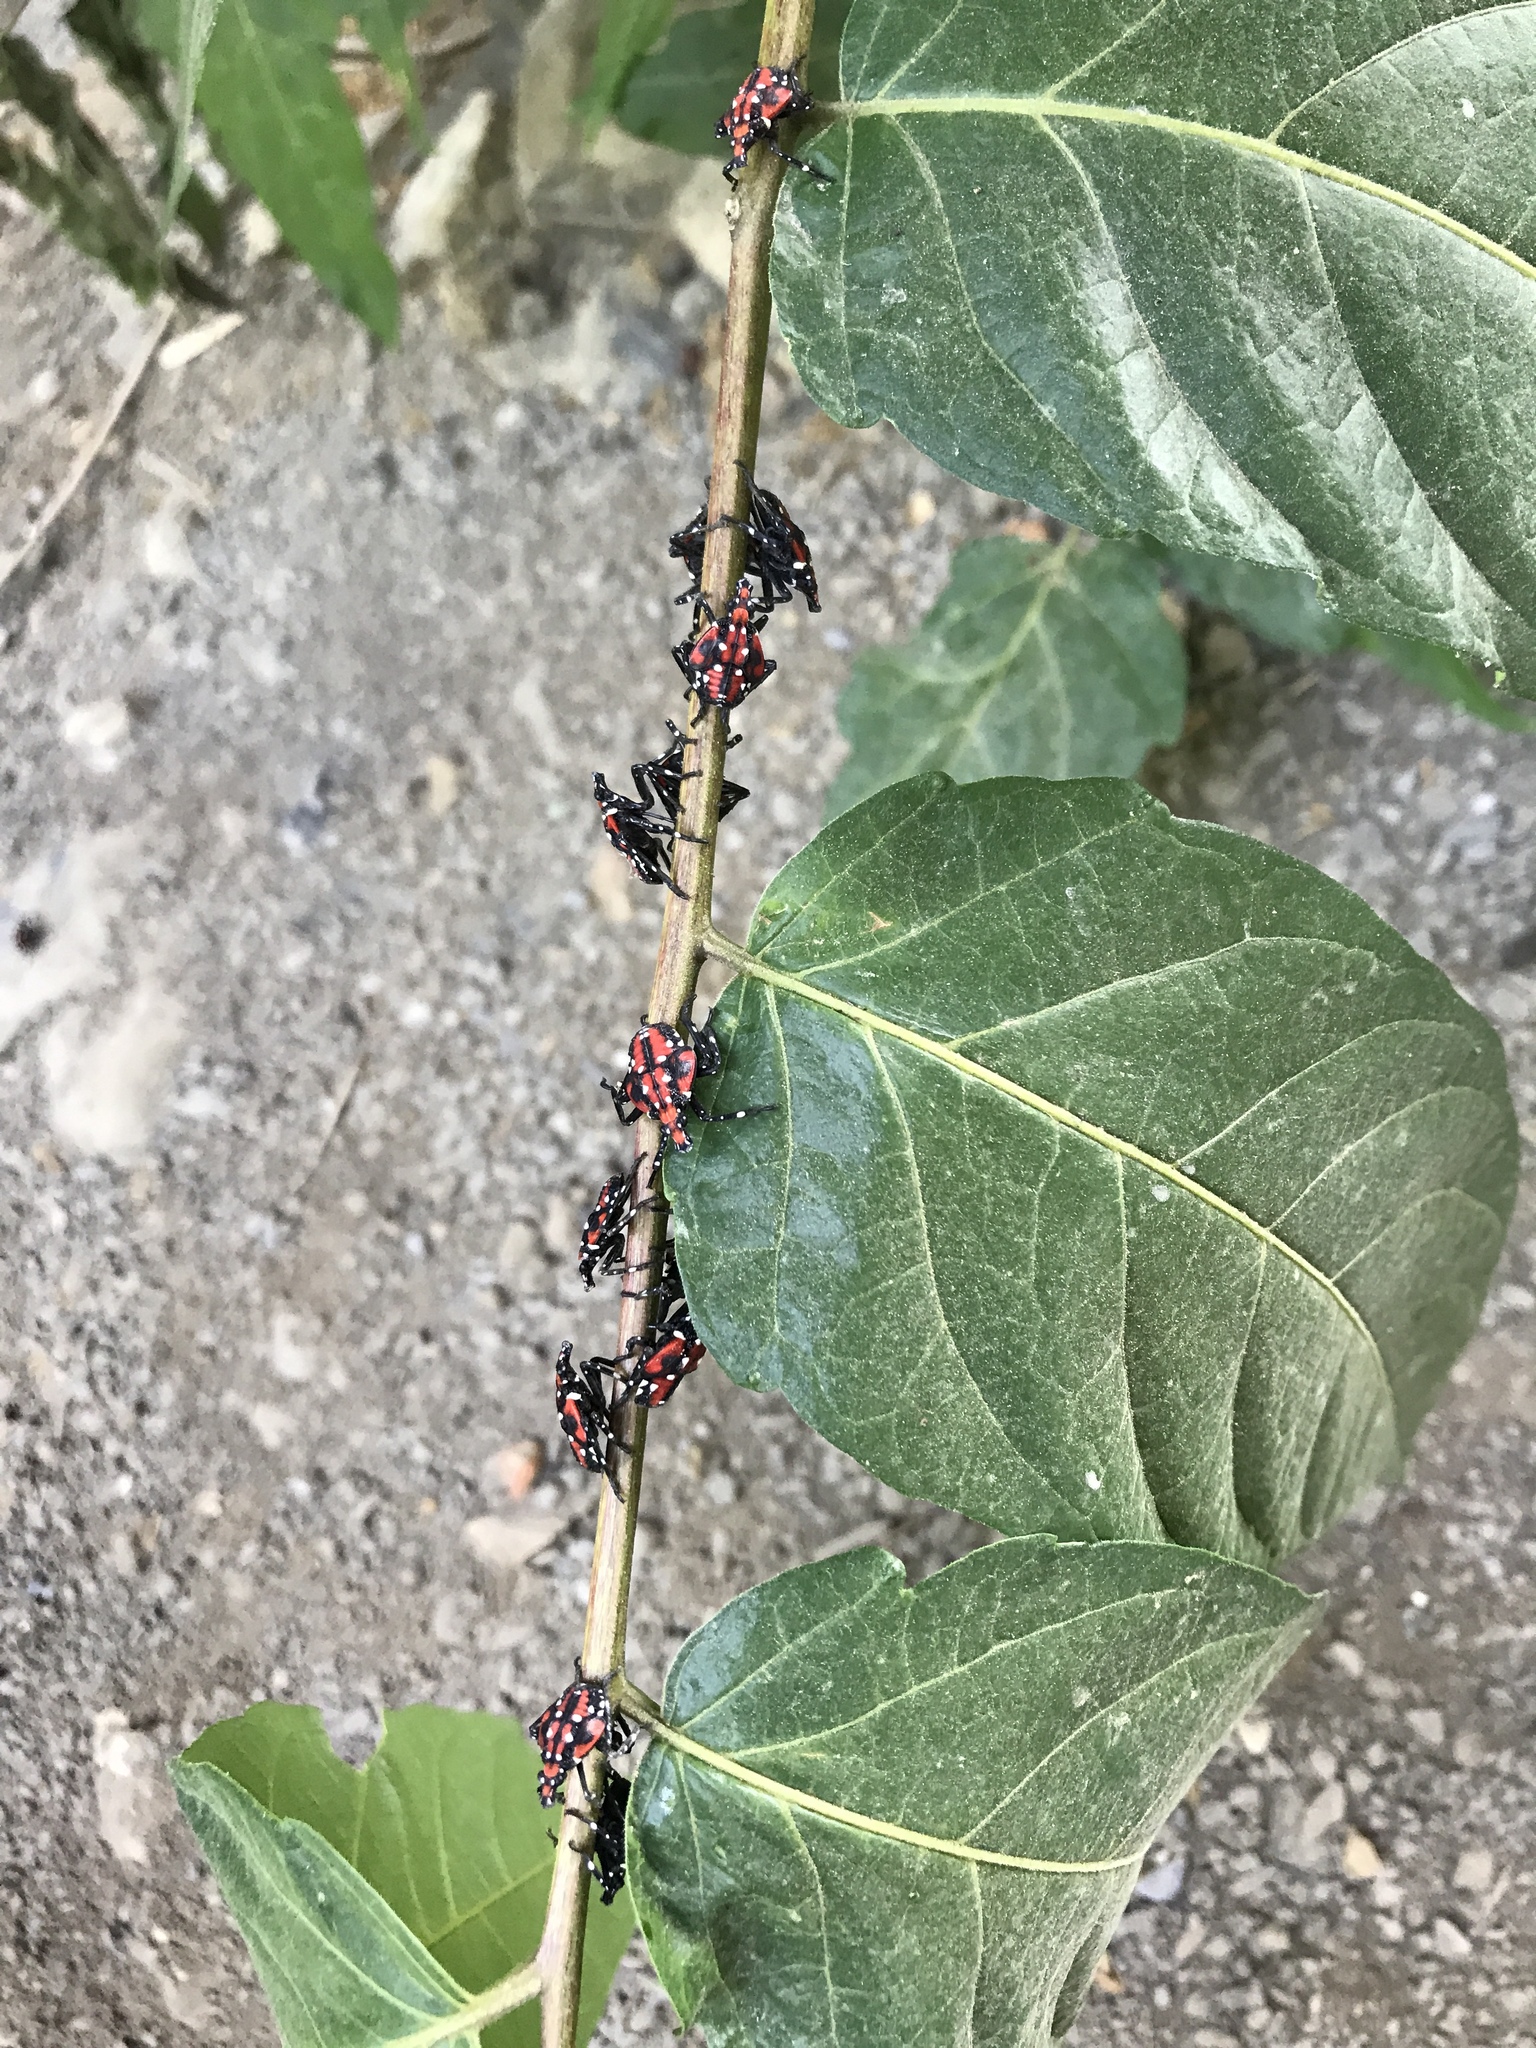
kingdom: Animalia
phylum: Arthropoda
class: Insecta
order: Hemiptera
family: Fulgoridae
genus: Lycorma
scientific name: Lycorma delicatula
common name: Spotted lanternfly
